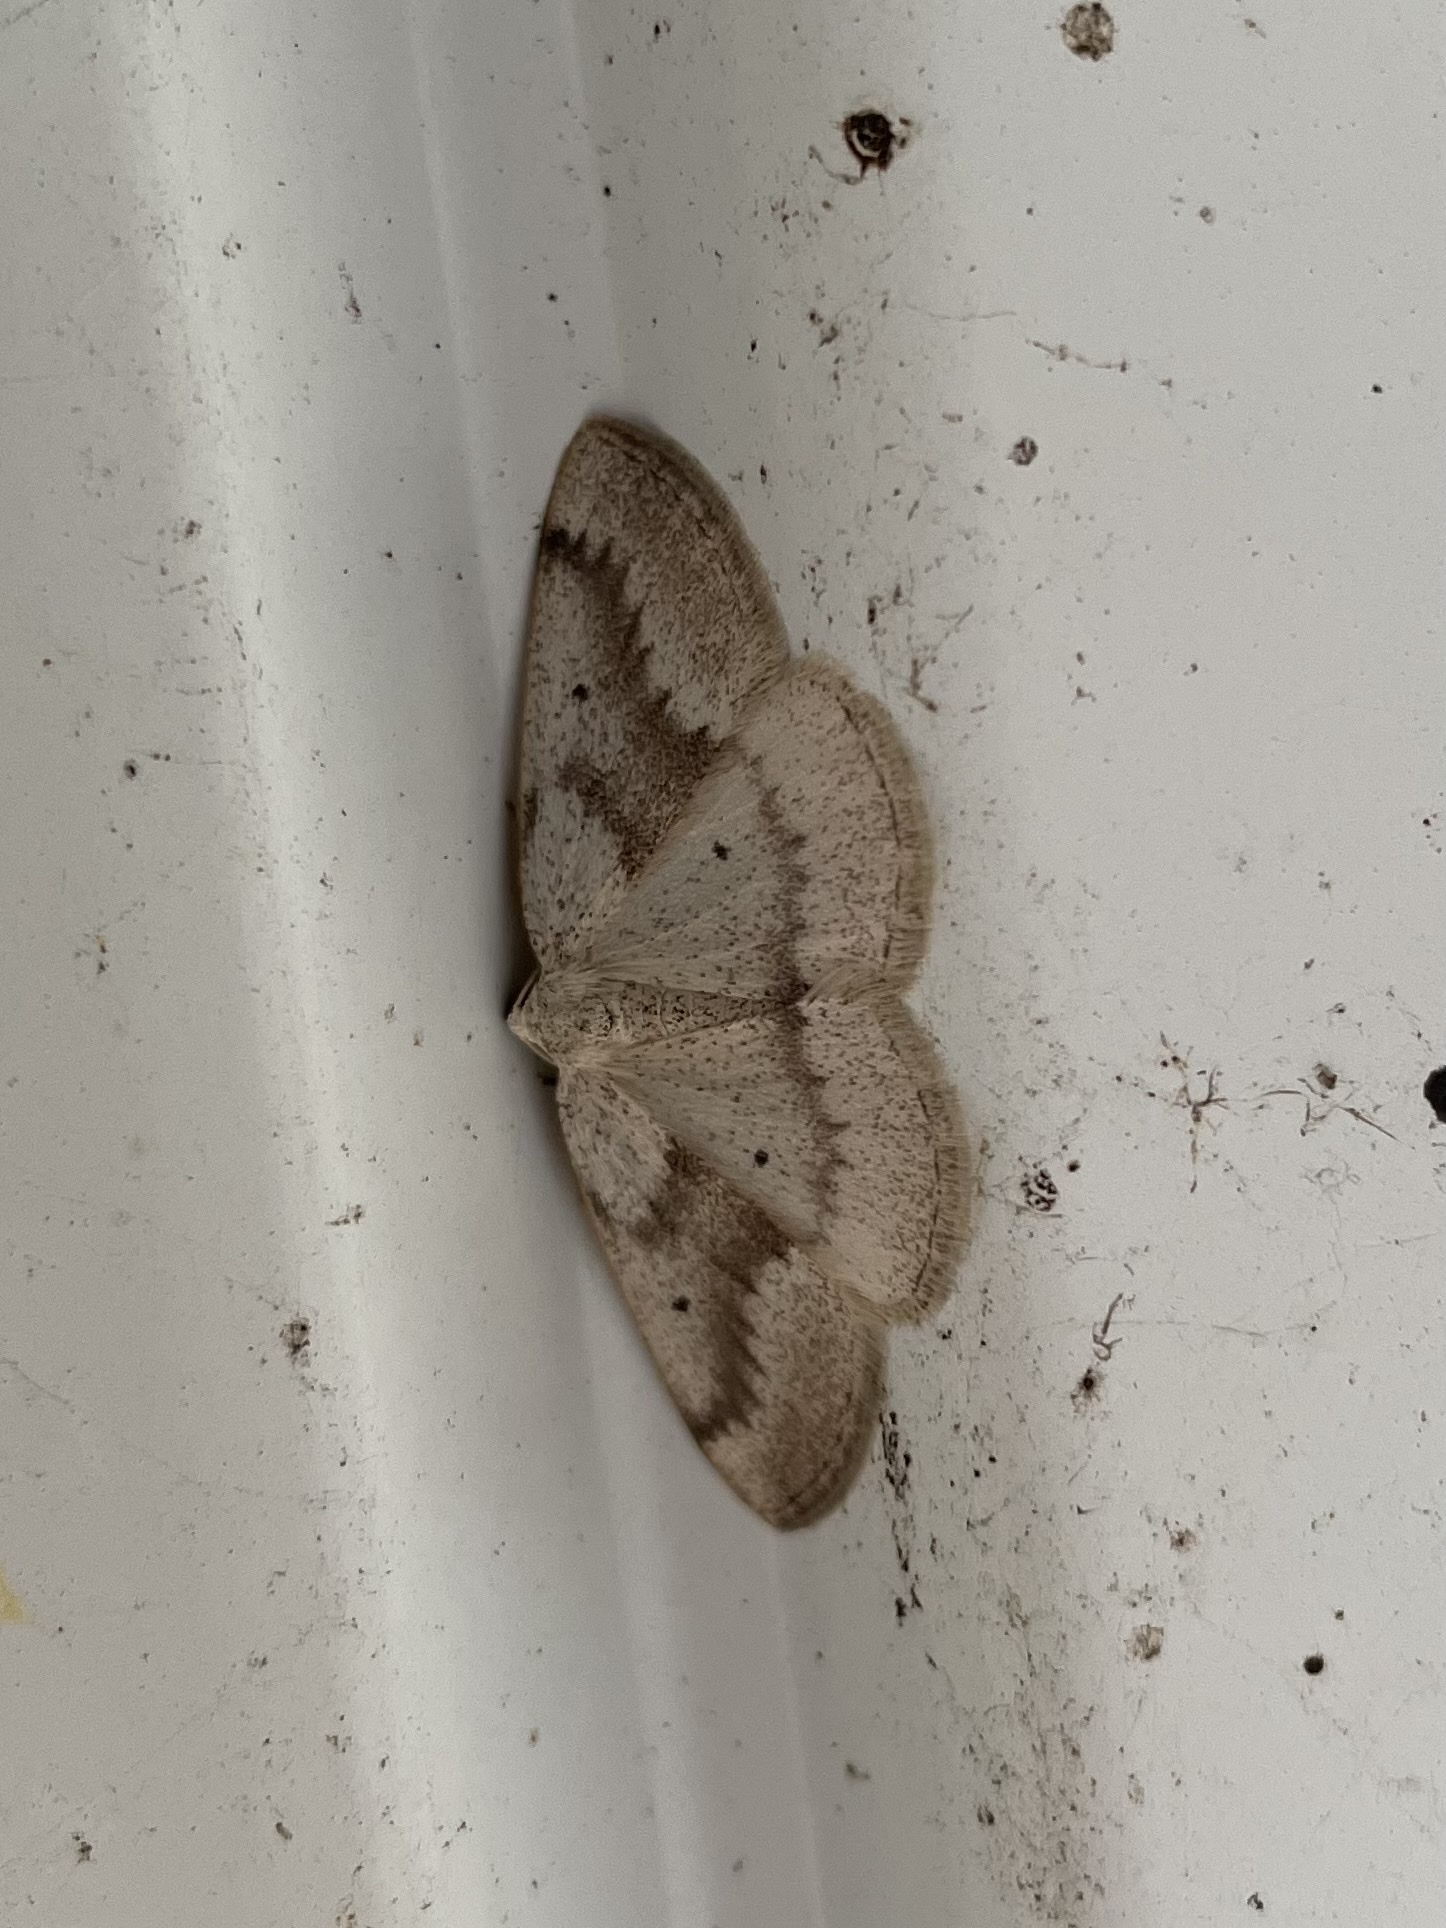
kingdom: Animalia
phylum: Arthropoda
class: Insecta
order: Lepidoptera
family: Geometridae
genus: Lomographa
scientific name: Lomographa glomeraria
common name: Gray spring moth
